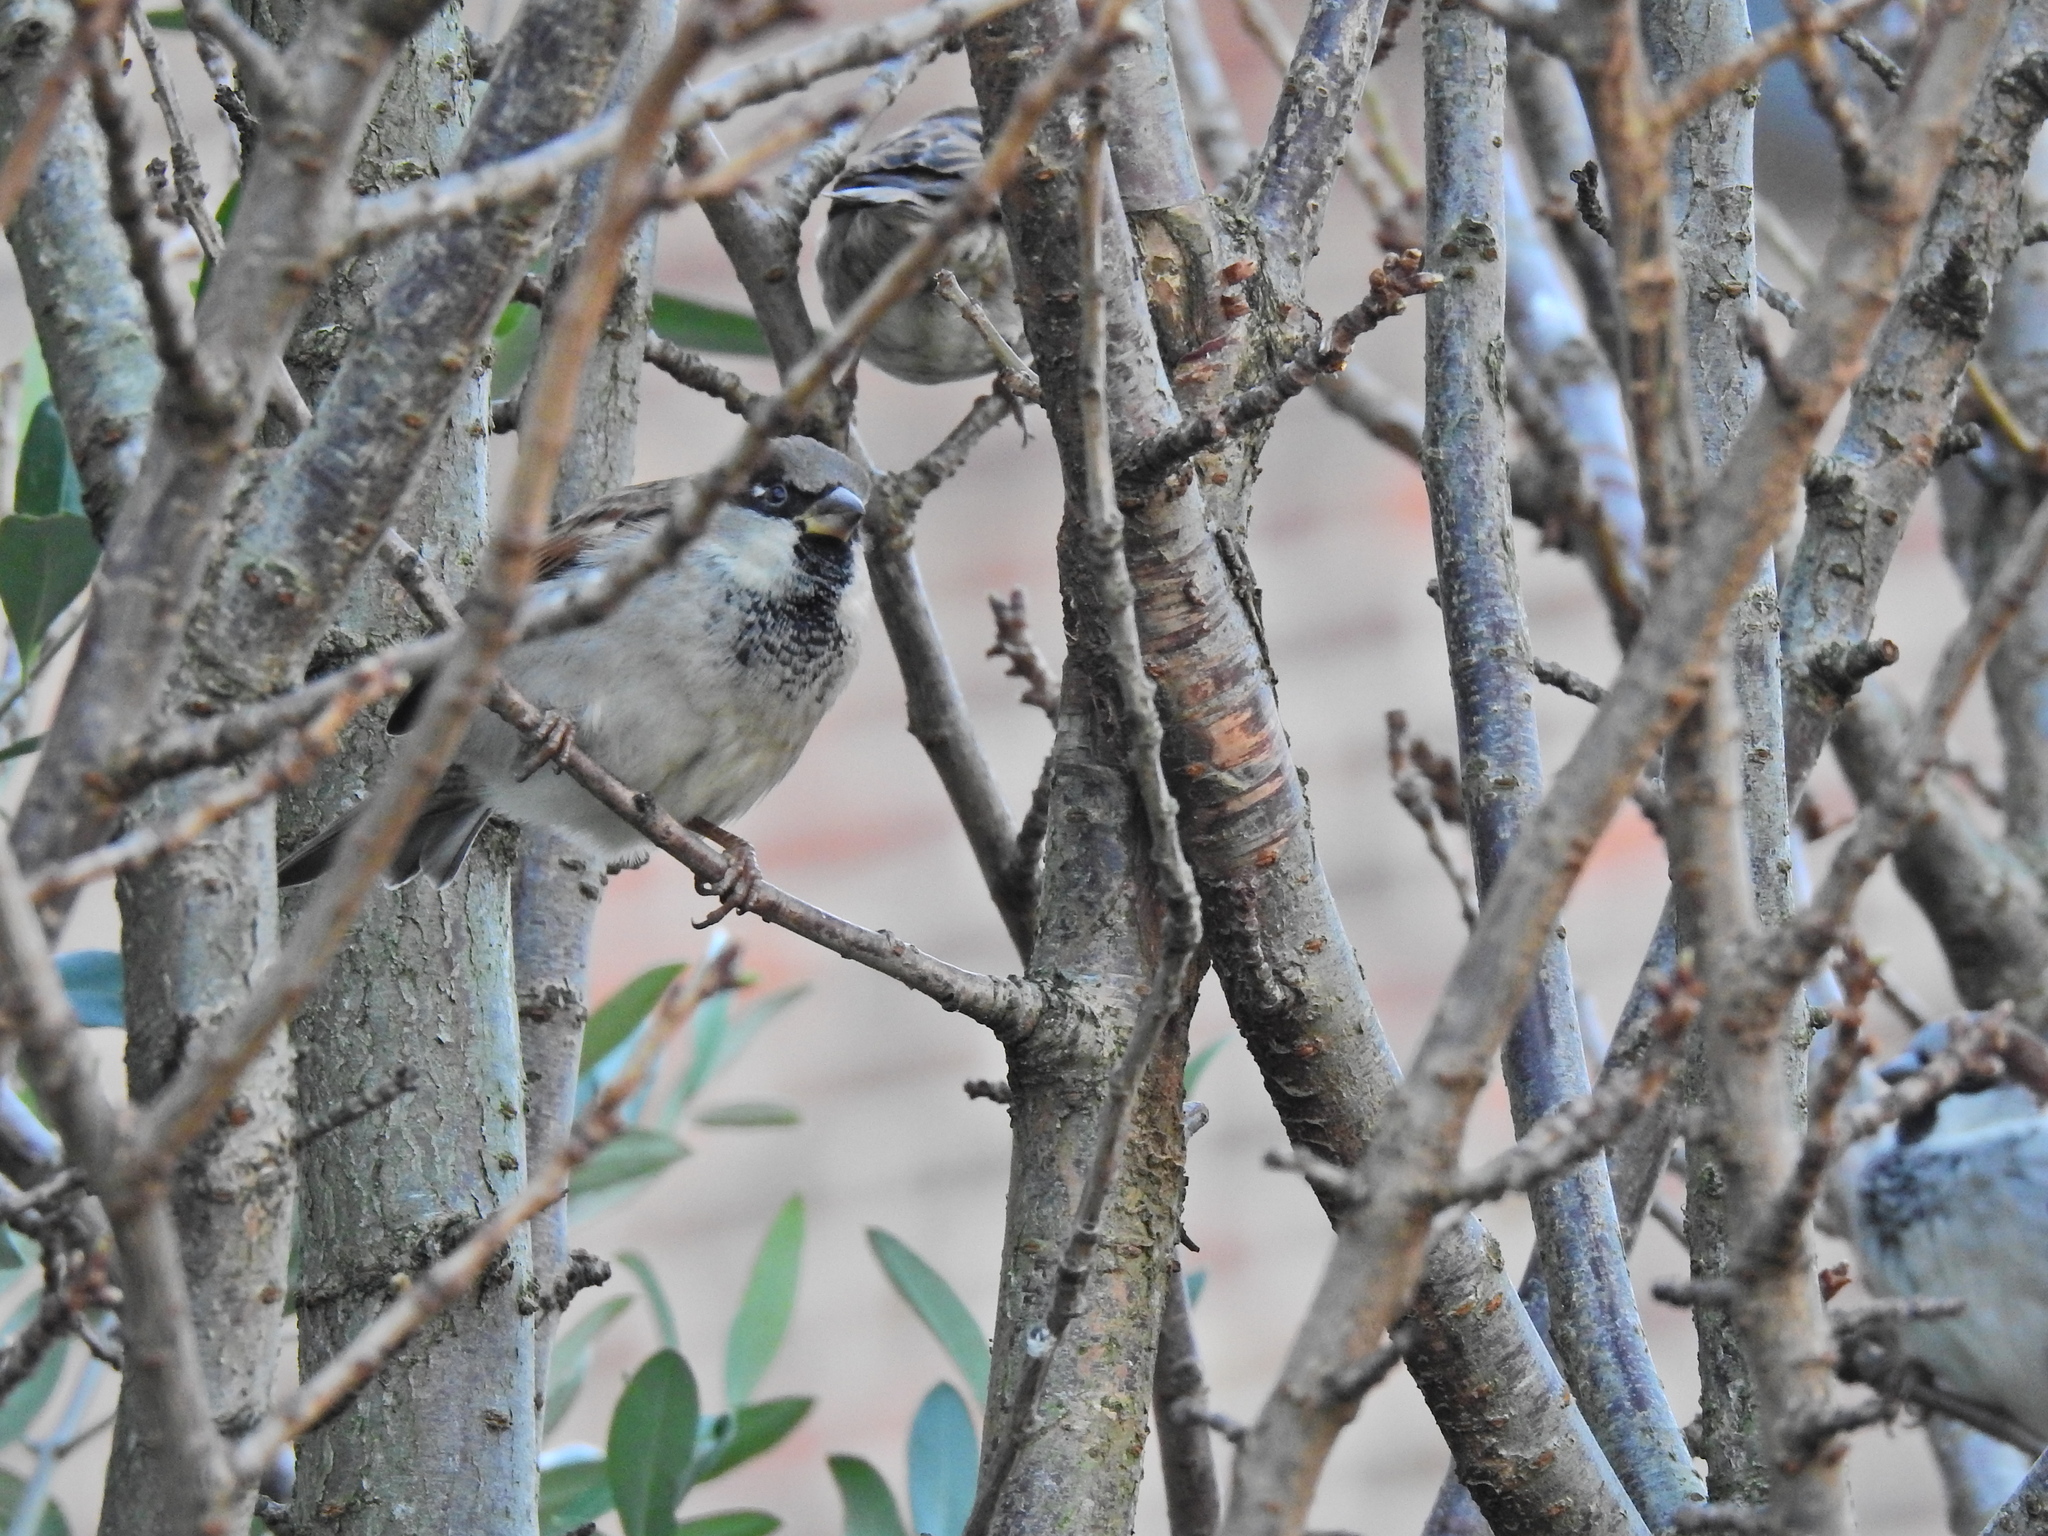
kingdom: Animalia
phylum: Chordata
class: Aves
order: Passeriformes
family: Passeridae
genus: Passer
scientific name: Passer domesticus
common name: House sparrow
